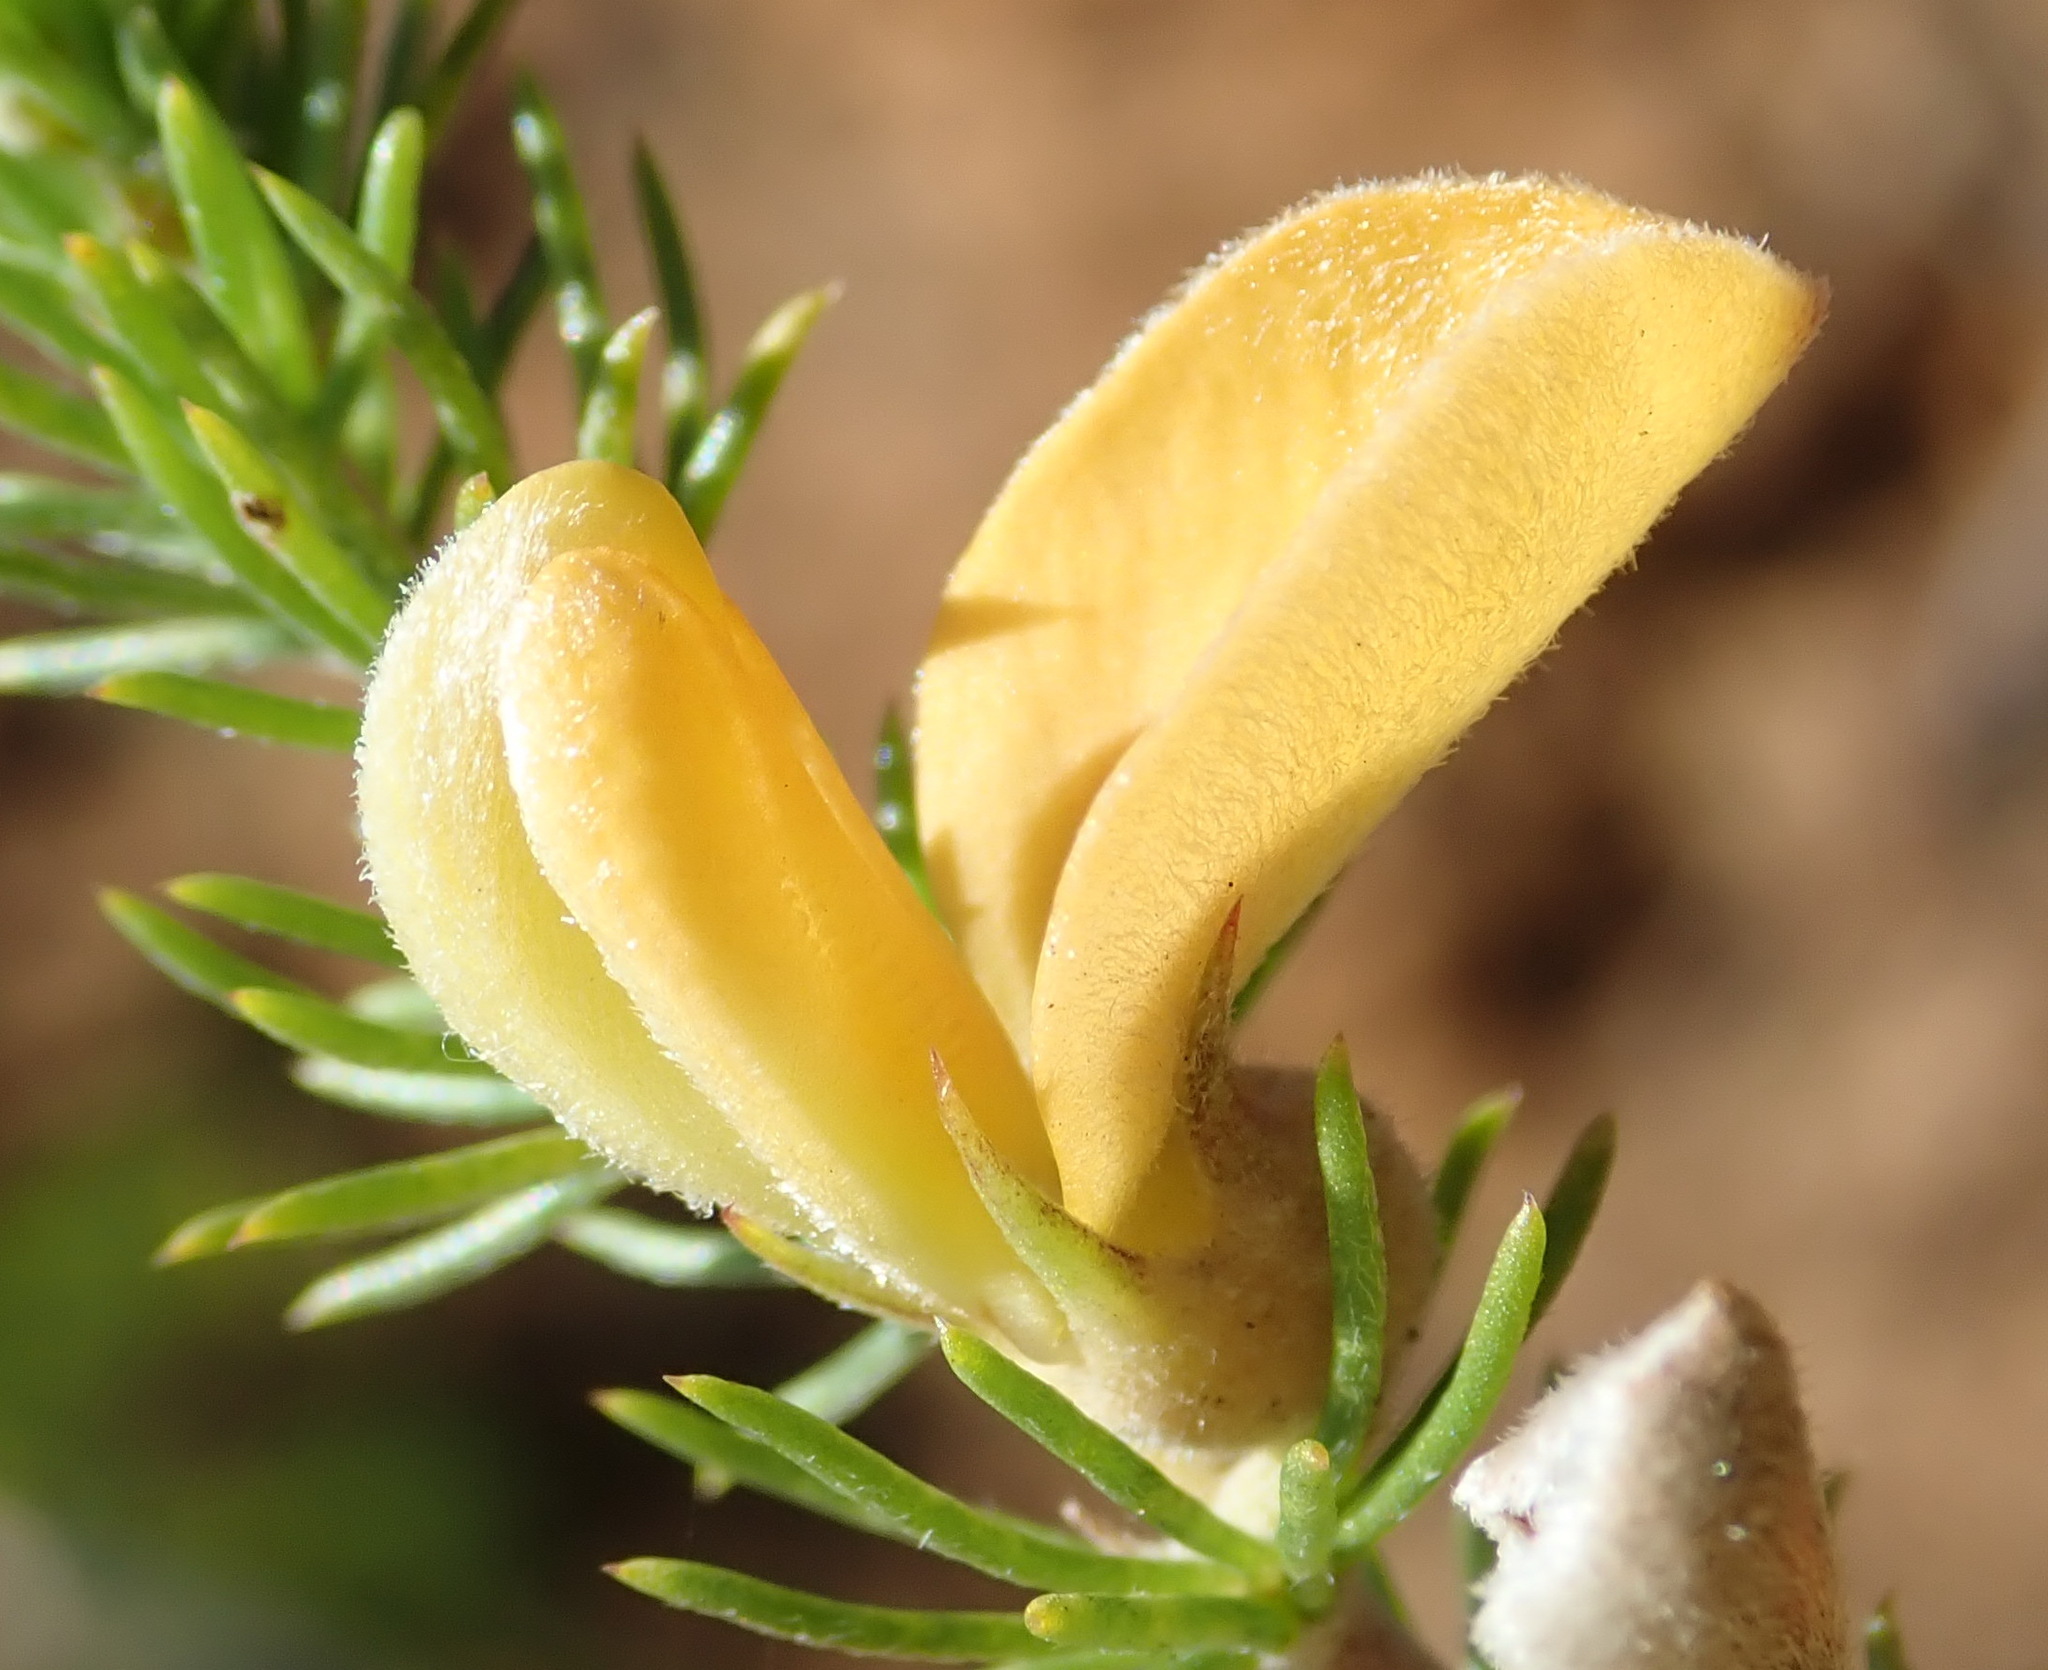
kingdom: Plantae
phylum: Tracheophyta
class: Magnoliopsida
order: Fabales
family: Fabaceae
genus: Aspalathus
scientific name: Aspalathus kougaensis
